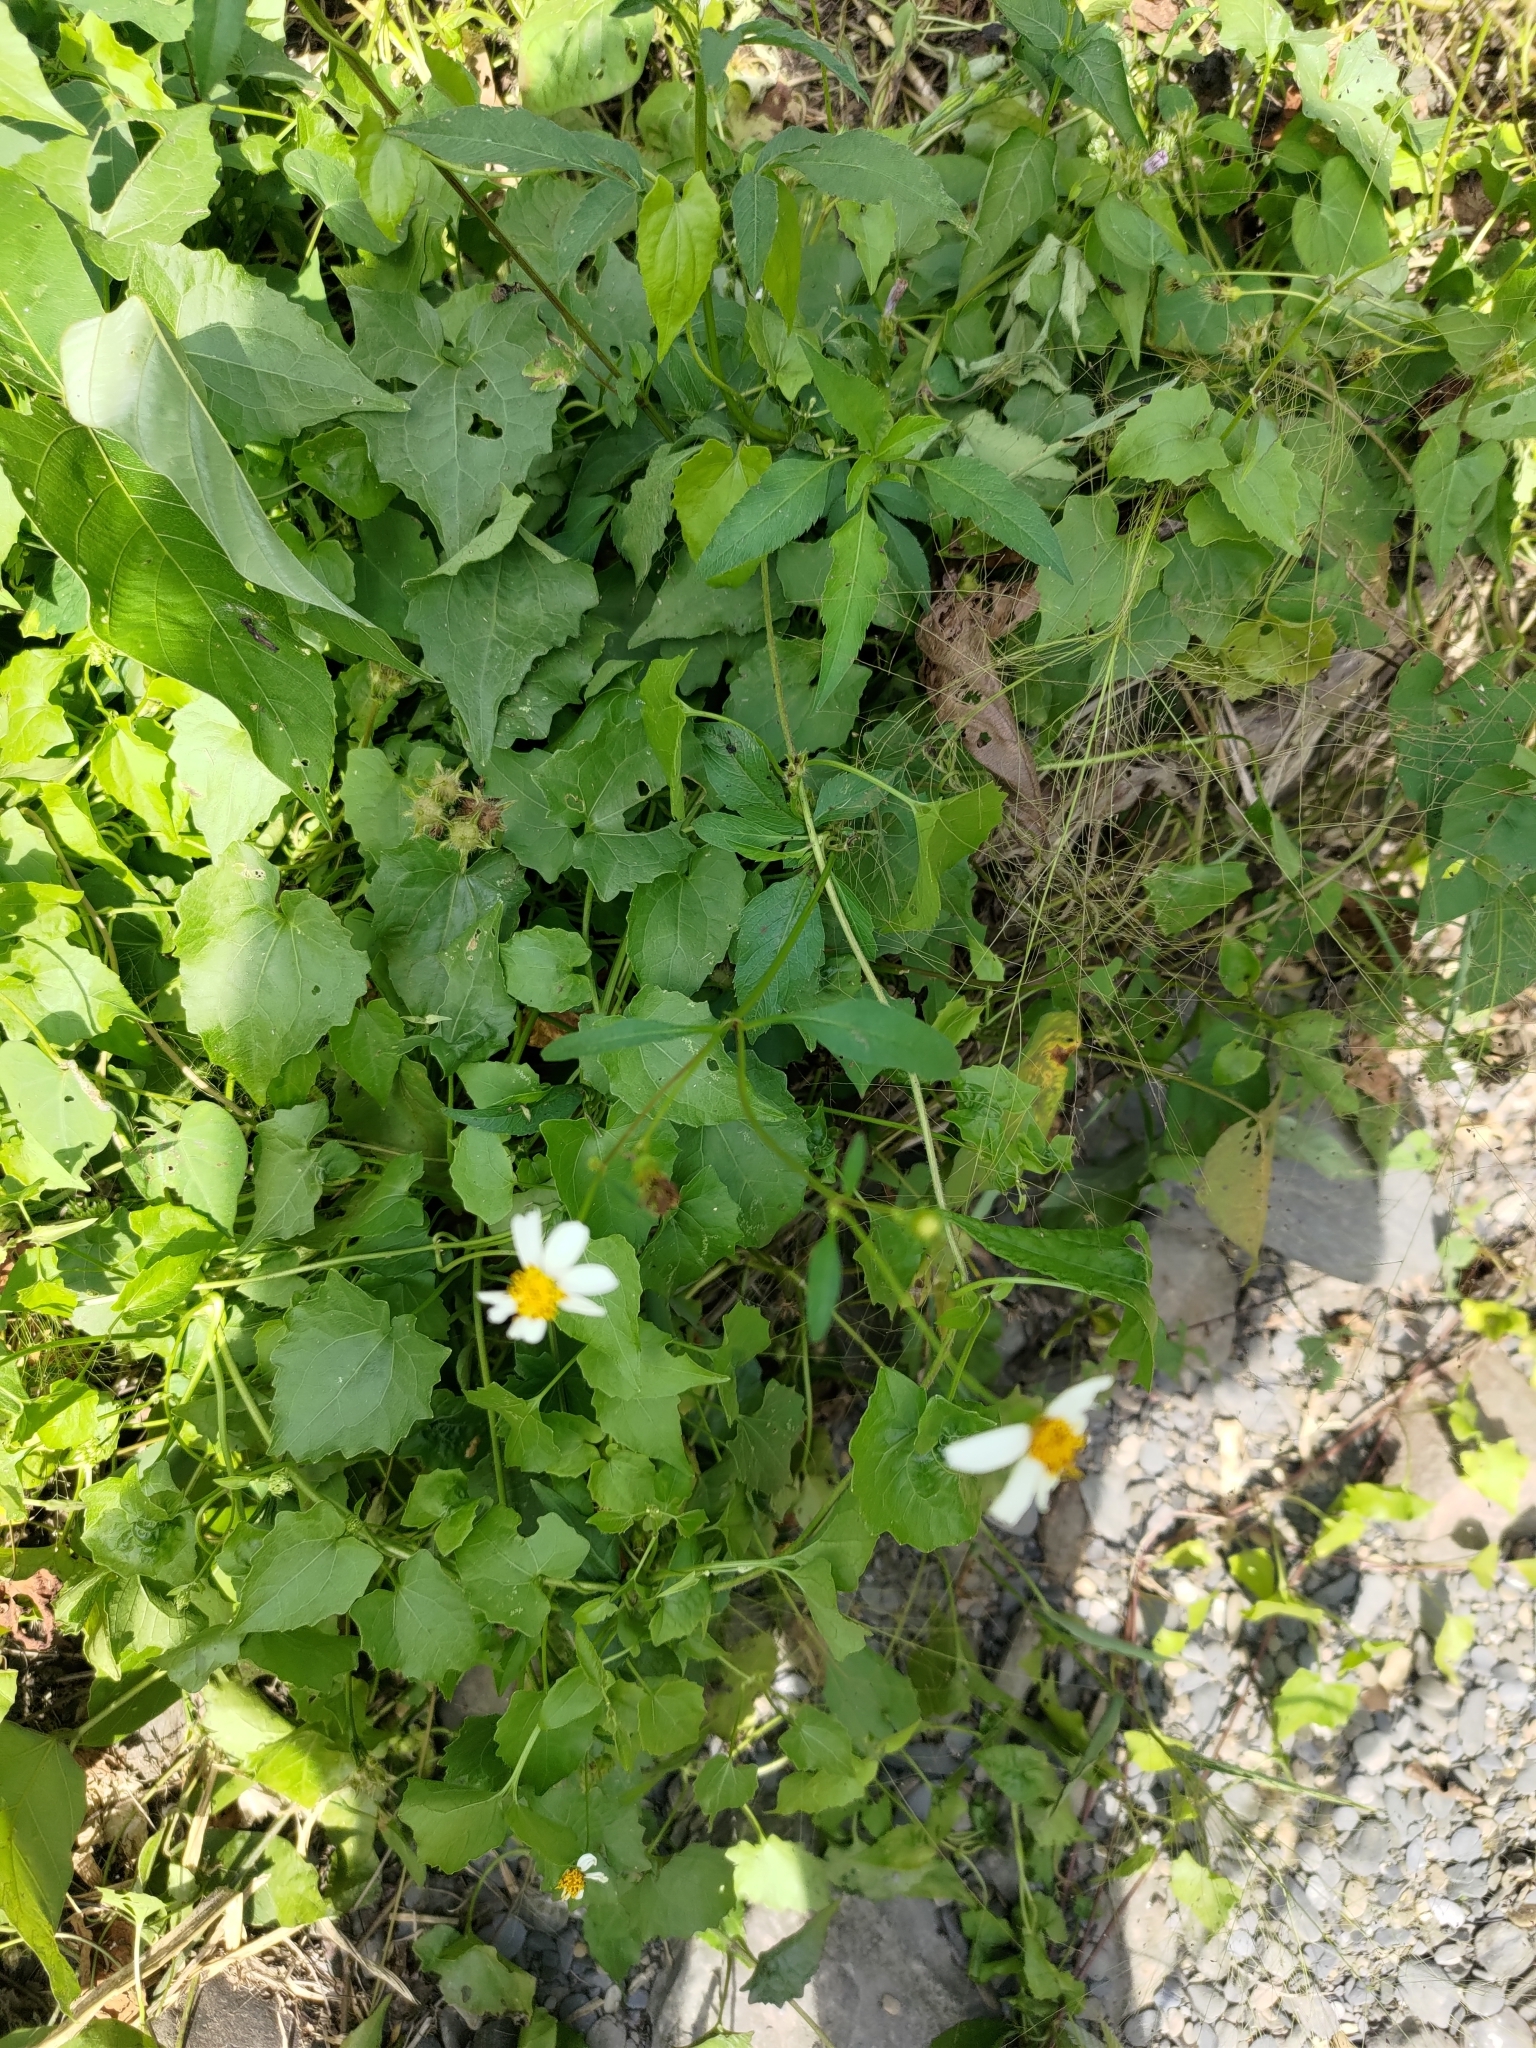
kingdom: Plantae
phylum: Tracheophyta
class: Magnoliopsida
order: Asterales
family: Asteraceae
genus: Bidens
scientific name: Bidens alba
